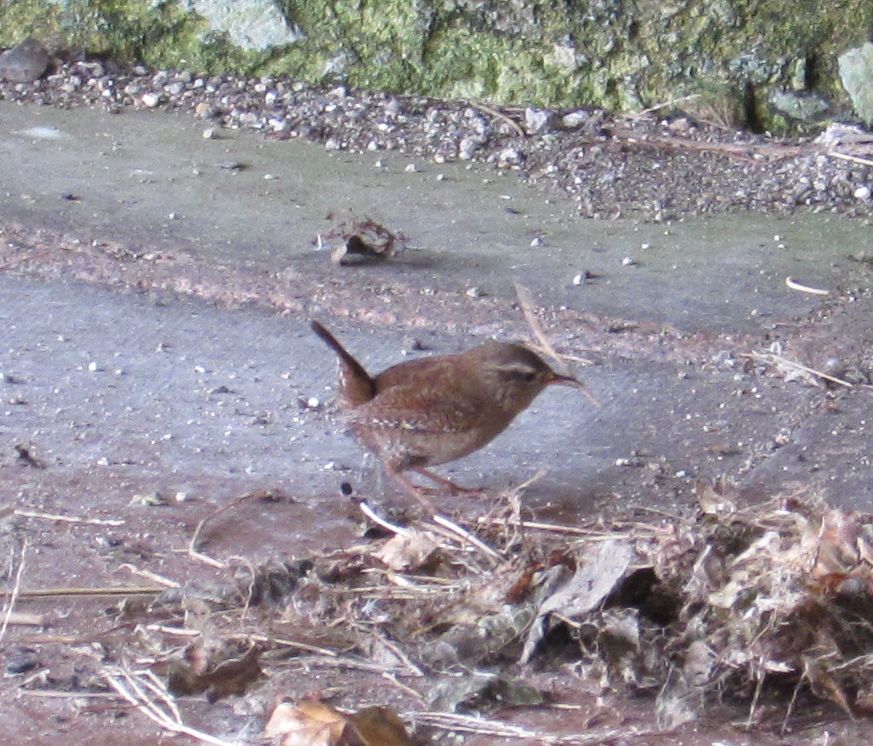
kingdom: Animalia
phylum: Chordata
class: Aves
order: Passeriformes
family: Troglodytidae
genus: Troglodytes
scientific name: Troglodytes troglodytes
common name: Eurasian wren
